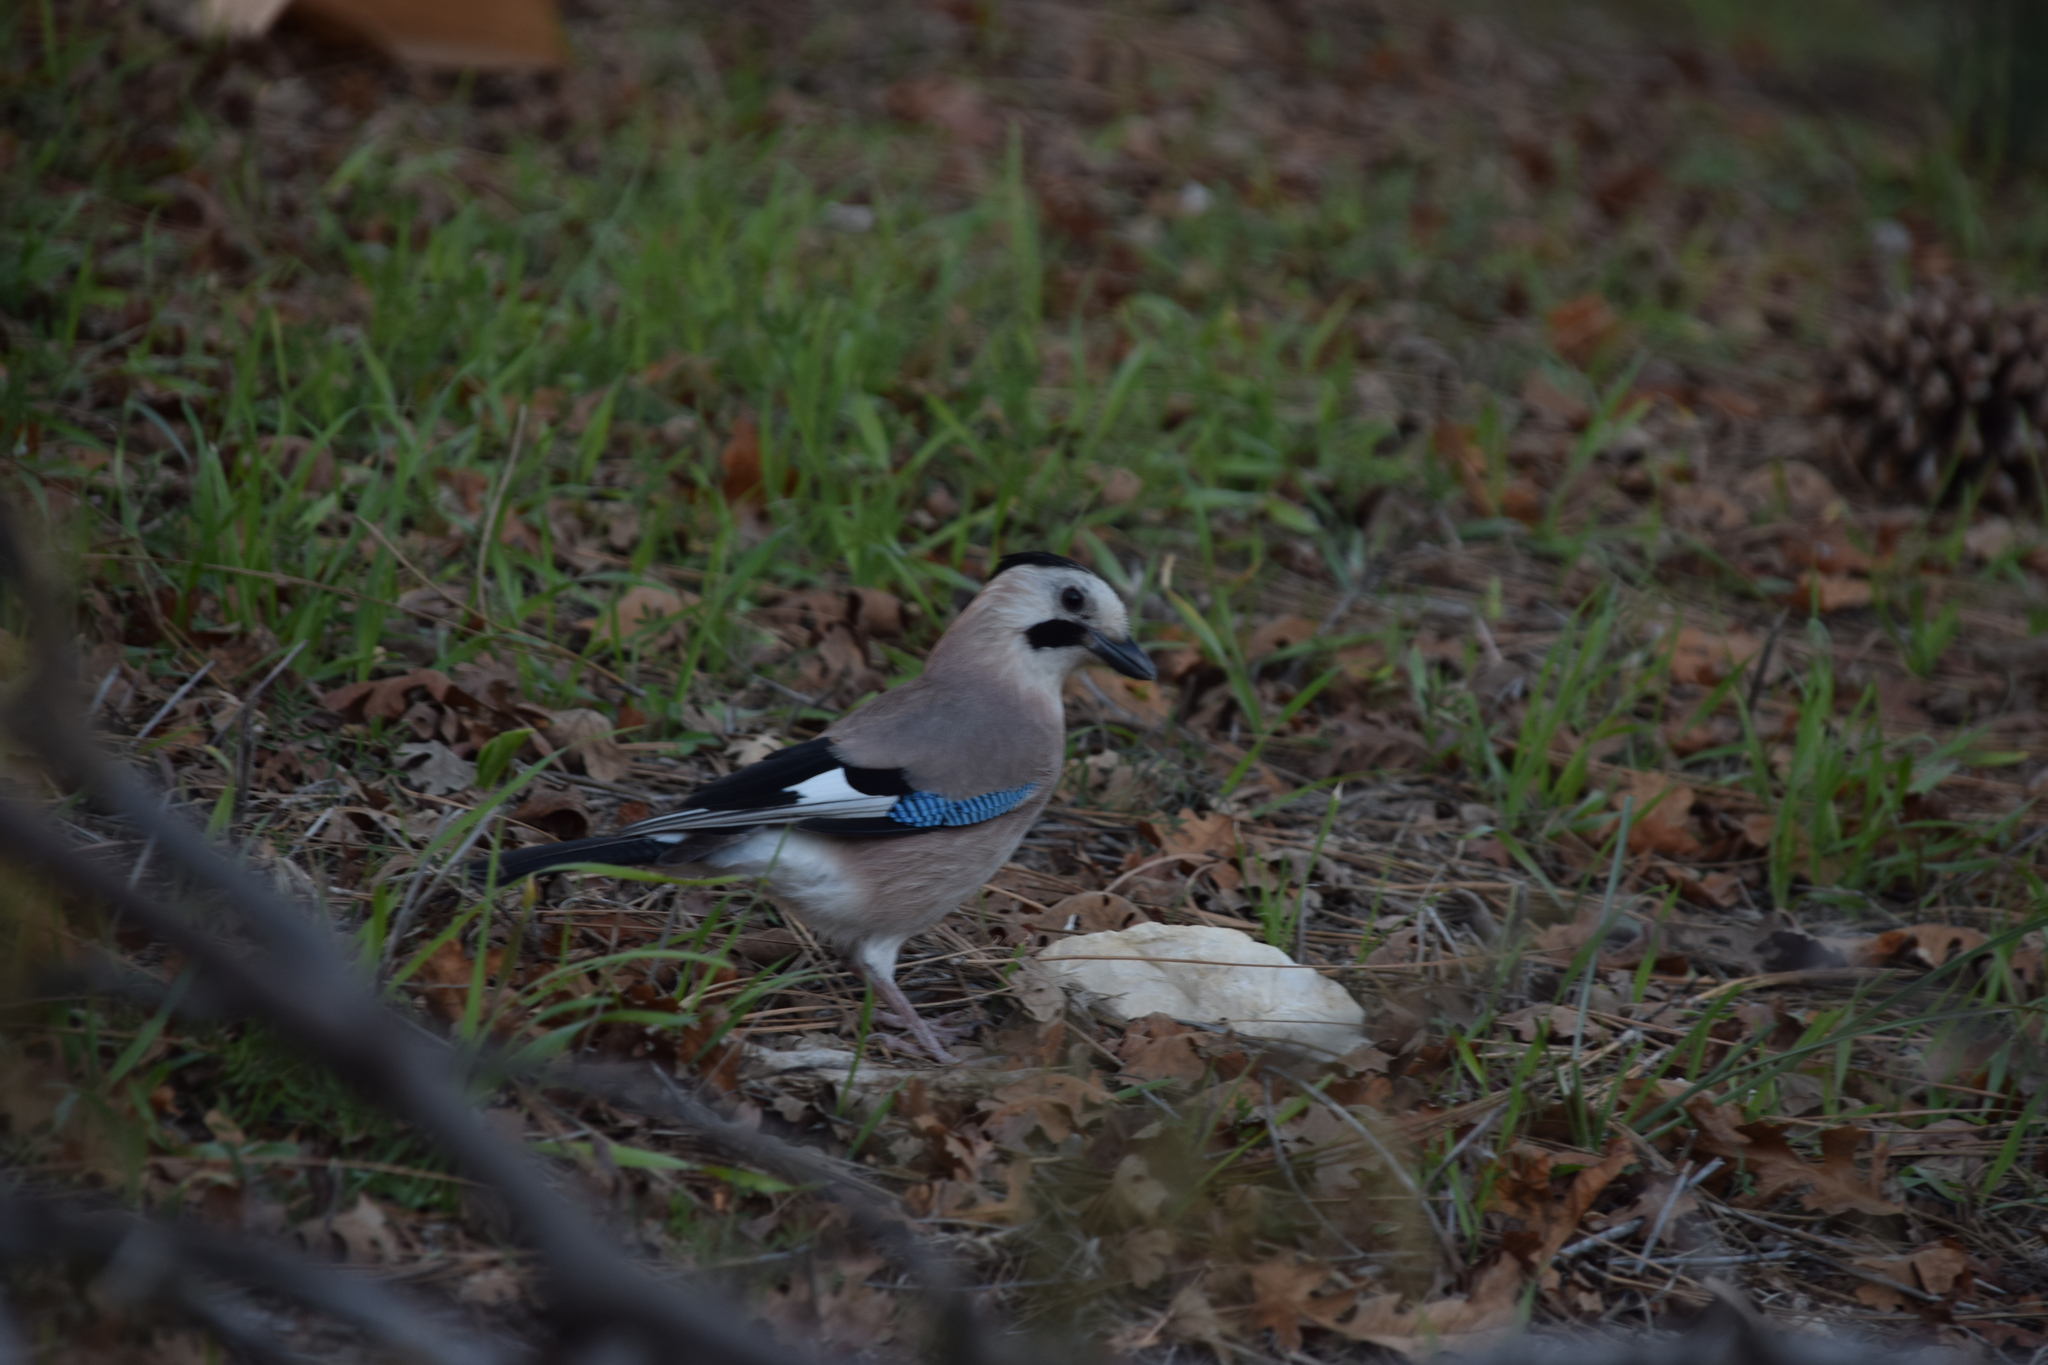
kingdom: Animalia
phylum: Chordata
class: Aves
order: Passeriformes
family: Corvidae
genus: Garrulus
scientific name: Garrulus glandarius
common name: Eurasian jay
